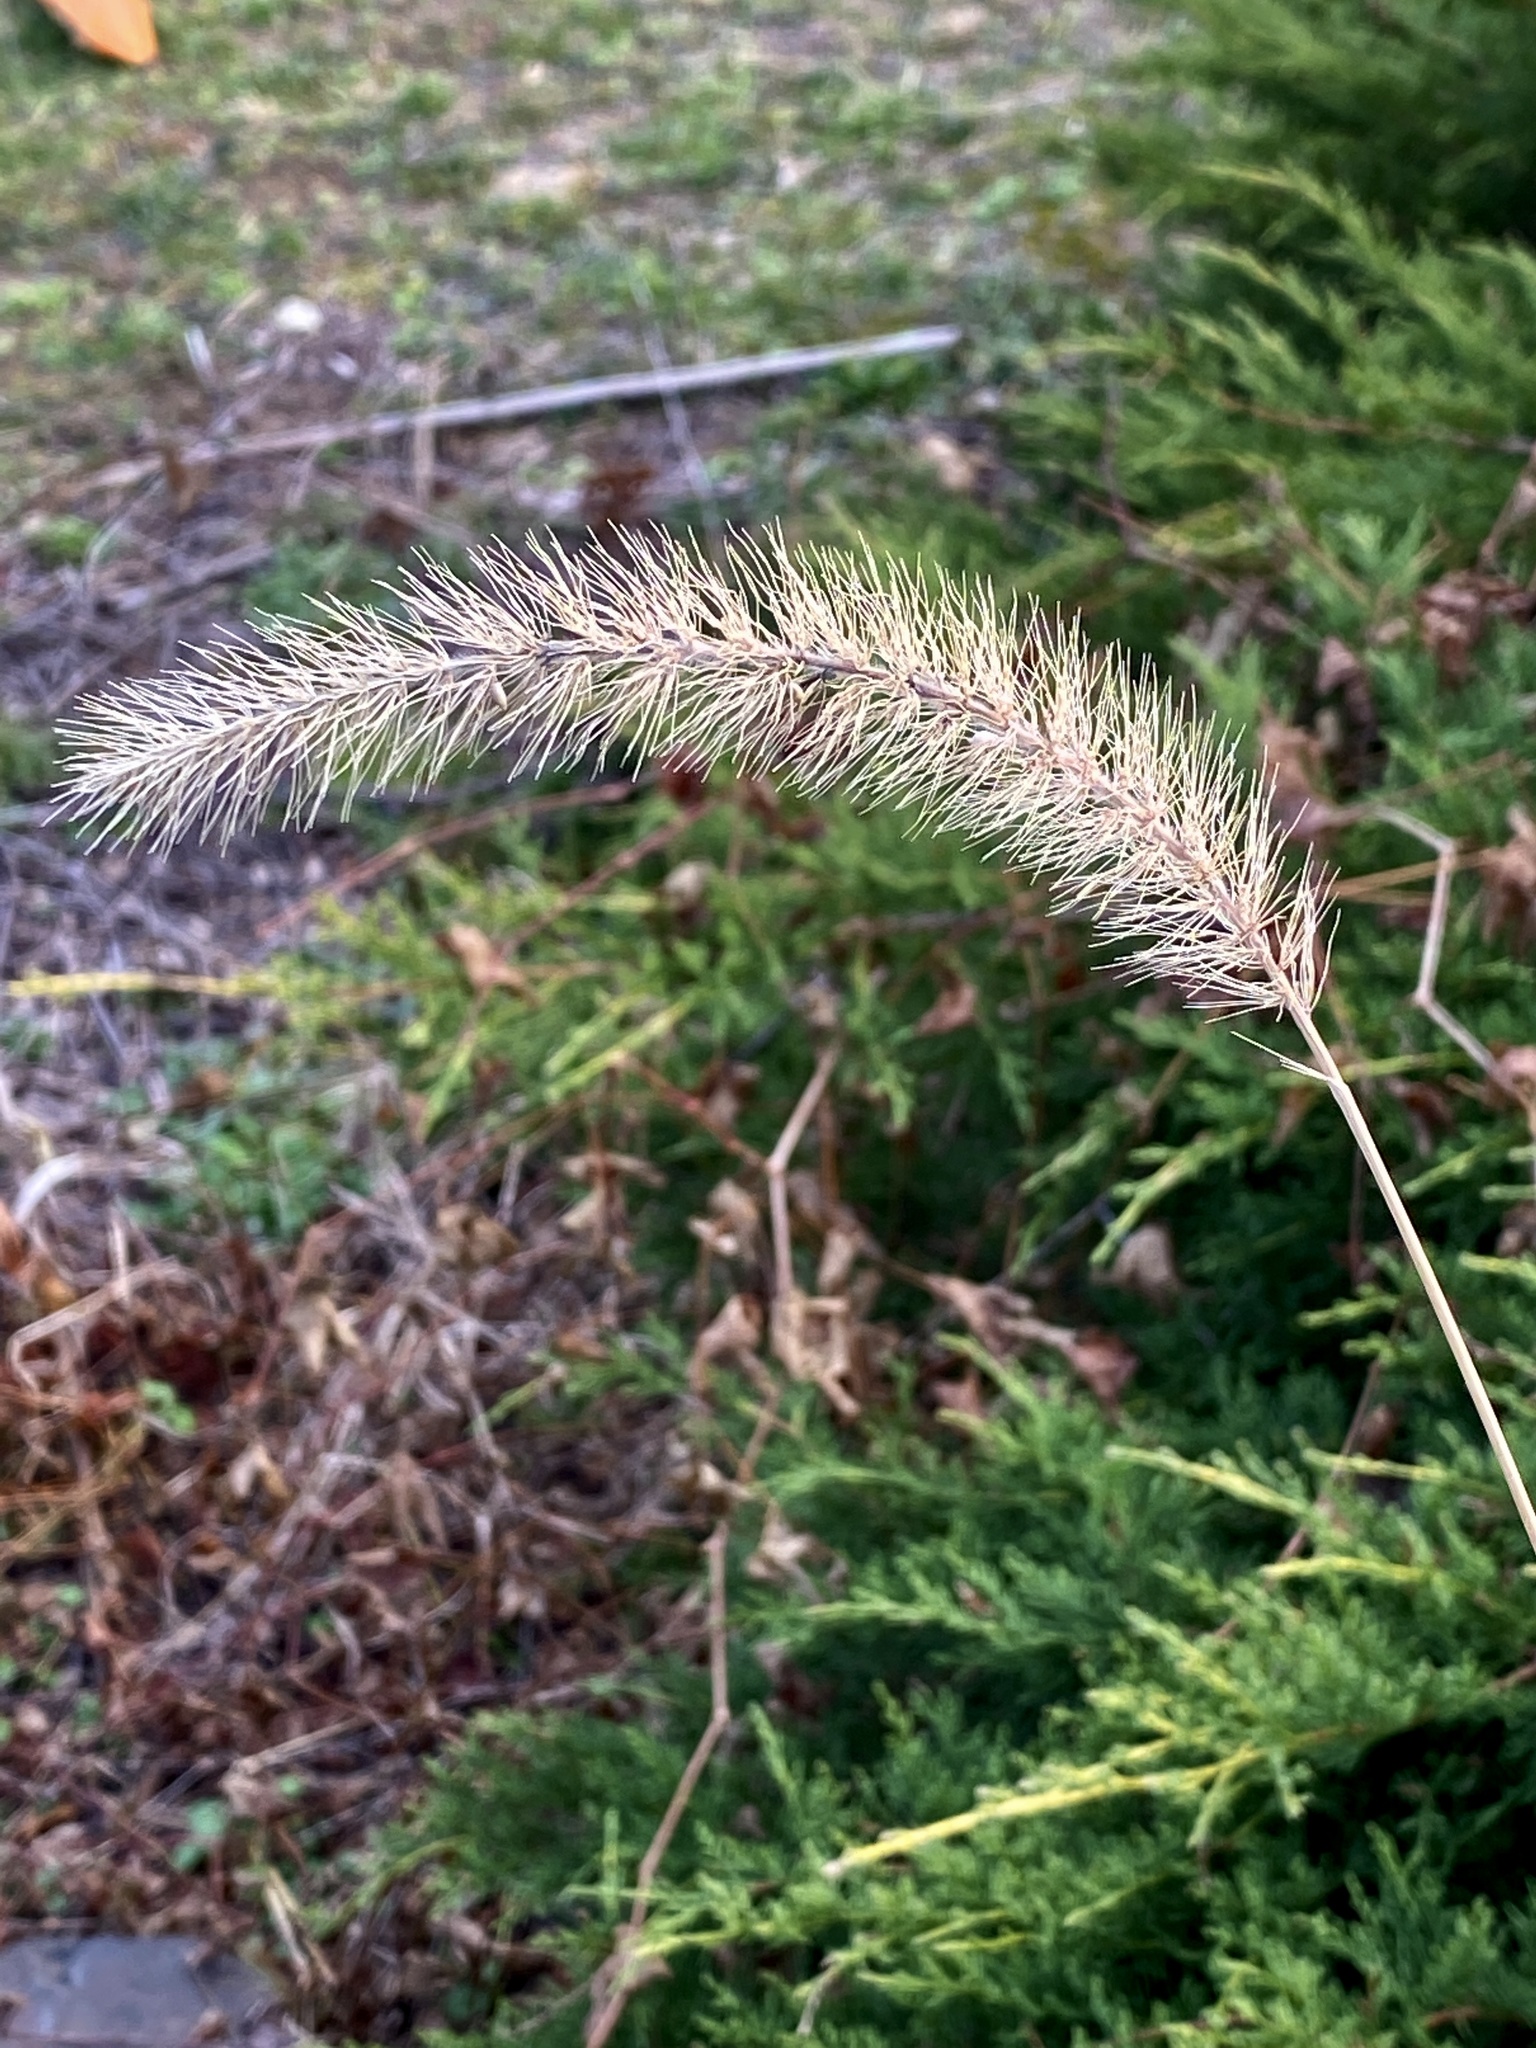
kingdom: Plantae
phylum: Tracheophyta
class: Liliopsida
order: Poales
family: Poaceae
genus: Setaria
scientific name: Setaria faberi
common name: Nodding bristle-grass
